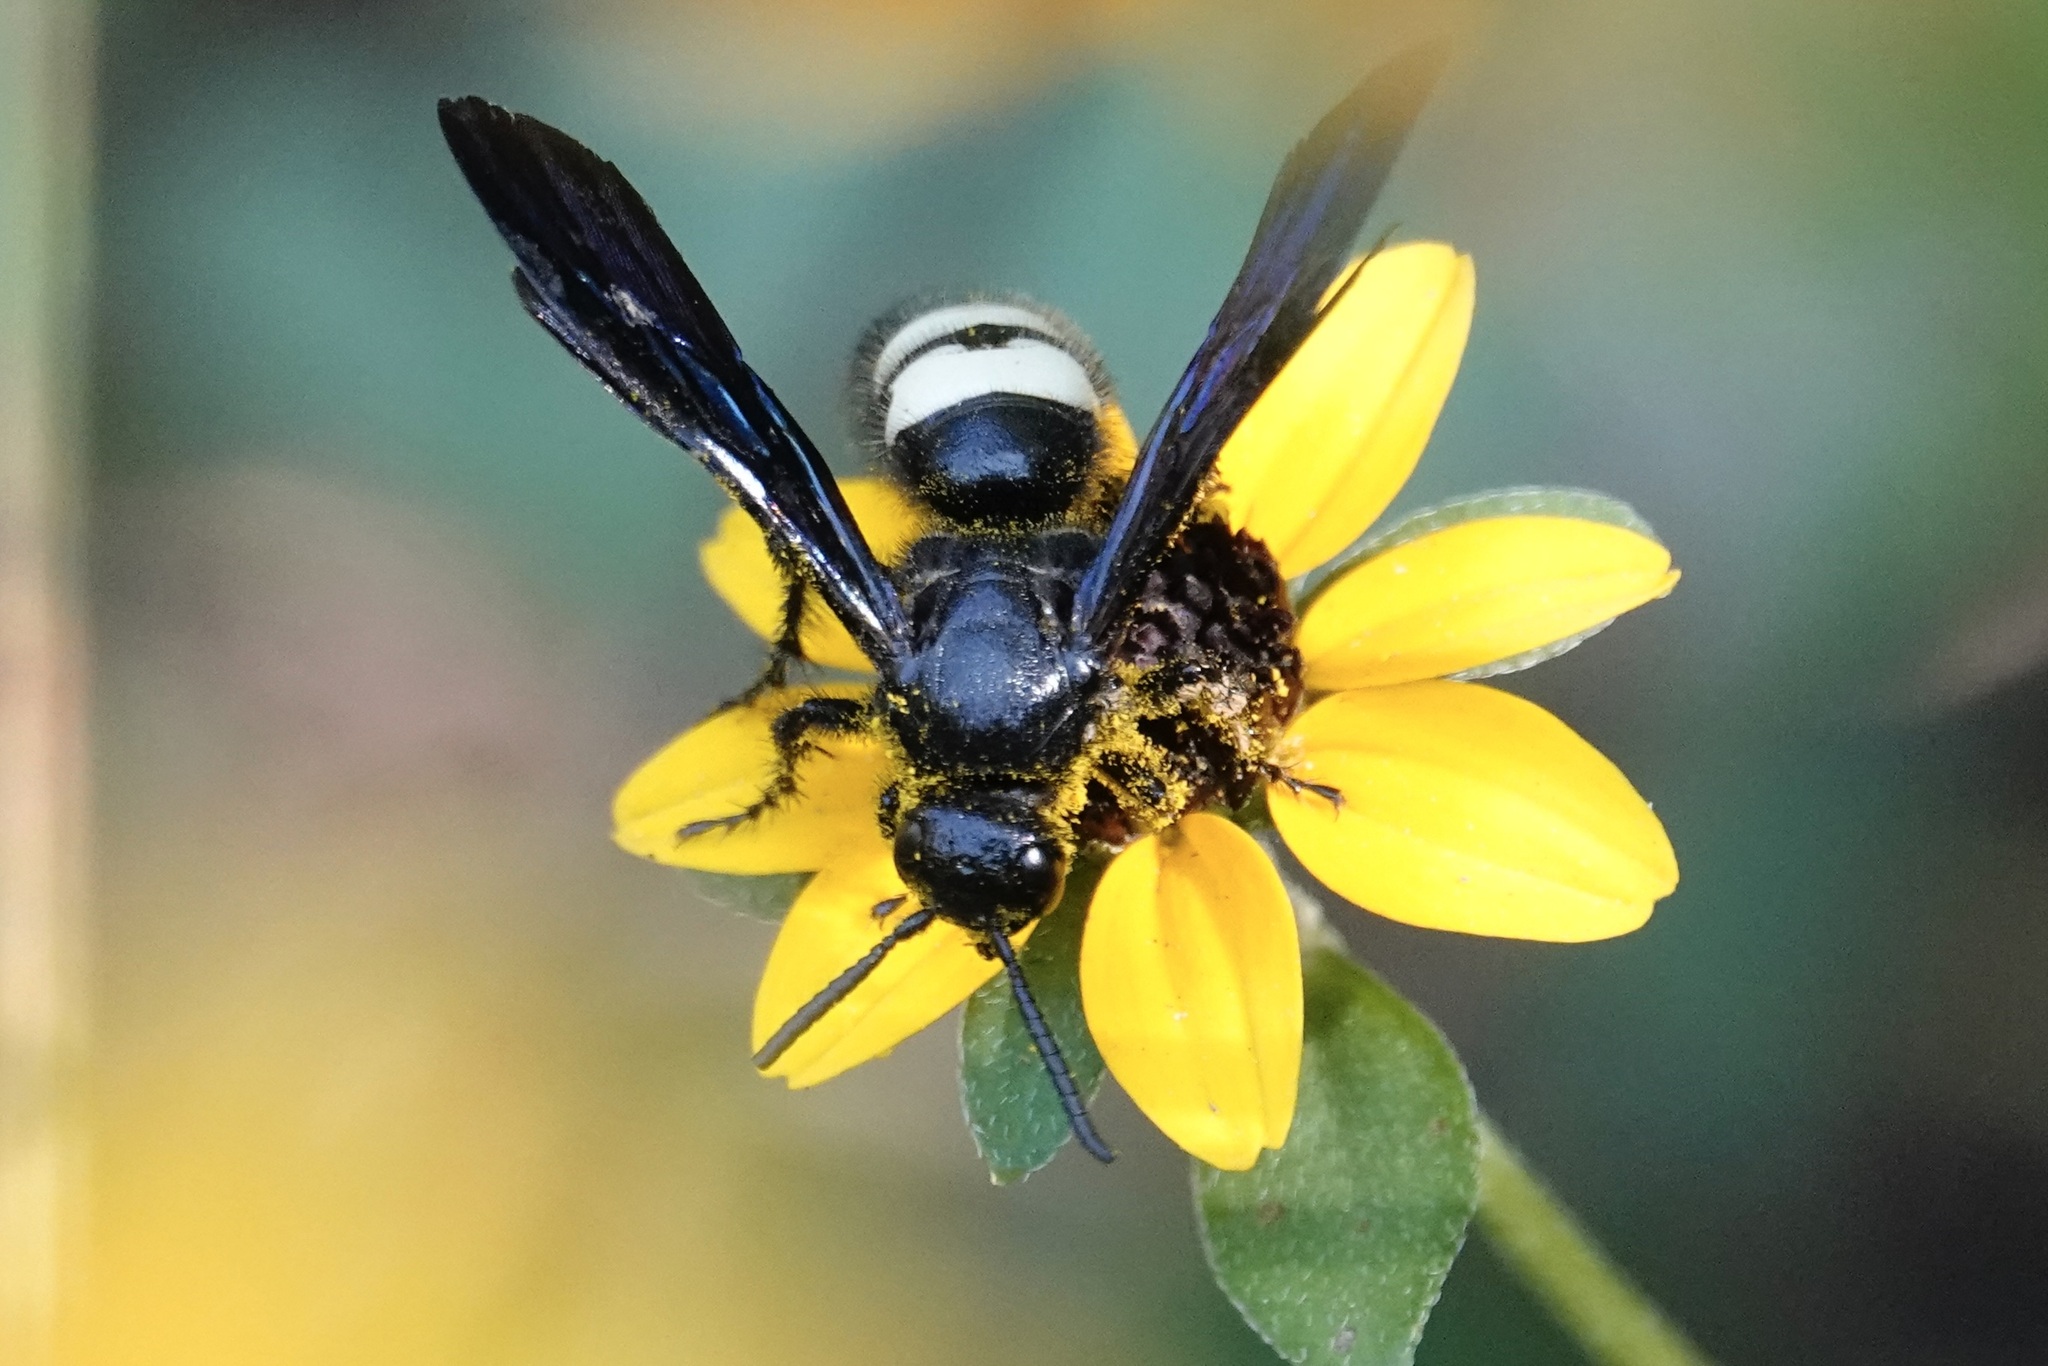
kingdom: Animalia
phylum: Arthropoda
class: Insecta
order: Hymenoptera
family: Scoliidae
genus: Scolia
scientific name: Scolia bicincta
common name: Double-banded scoliid wasp
